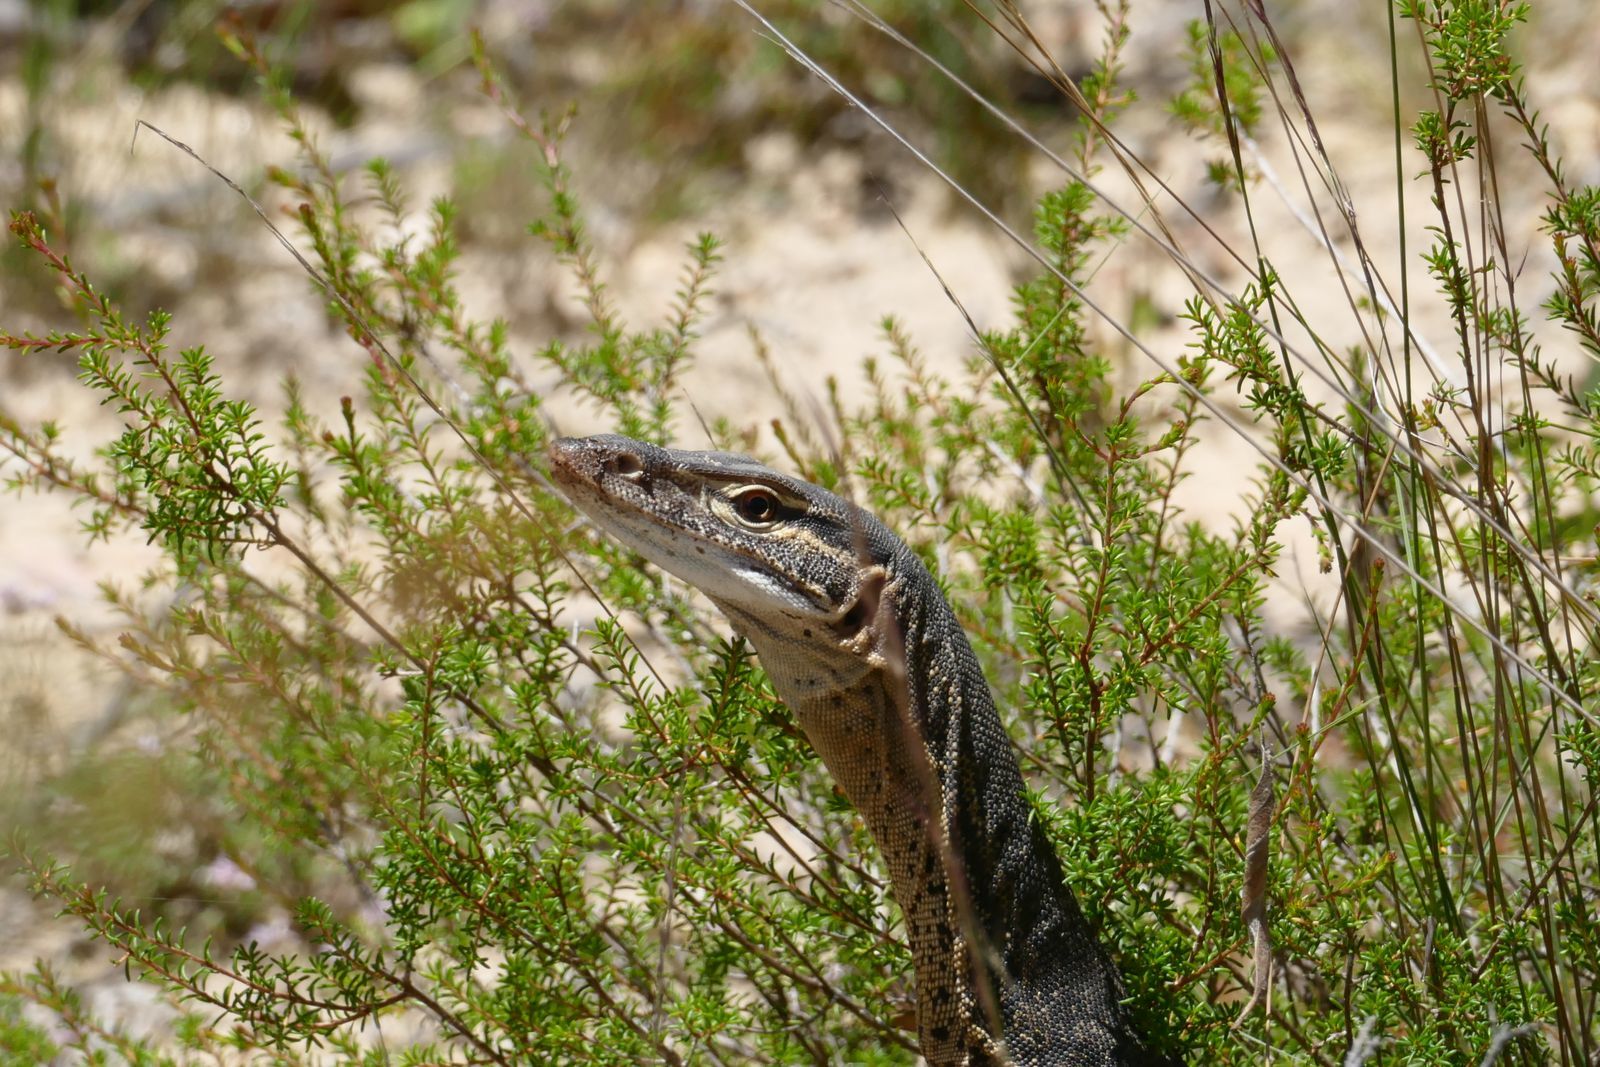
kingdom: Animalia
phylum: Chordata
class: Squamata
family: Varanidae
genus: Varanus
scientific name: Varanus gouldii
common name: Gould's goanna
